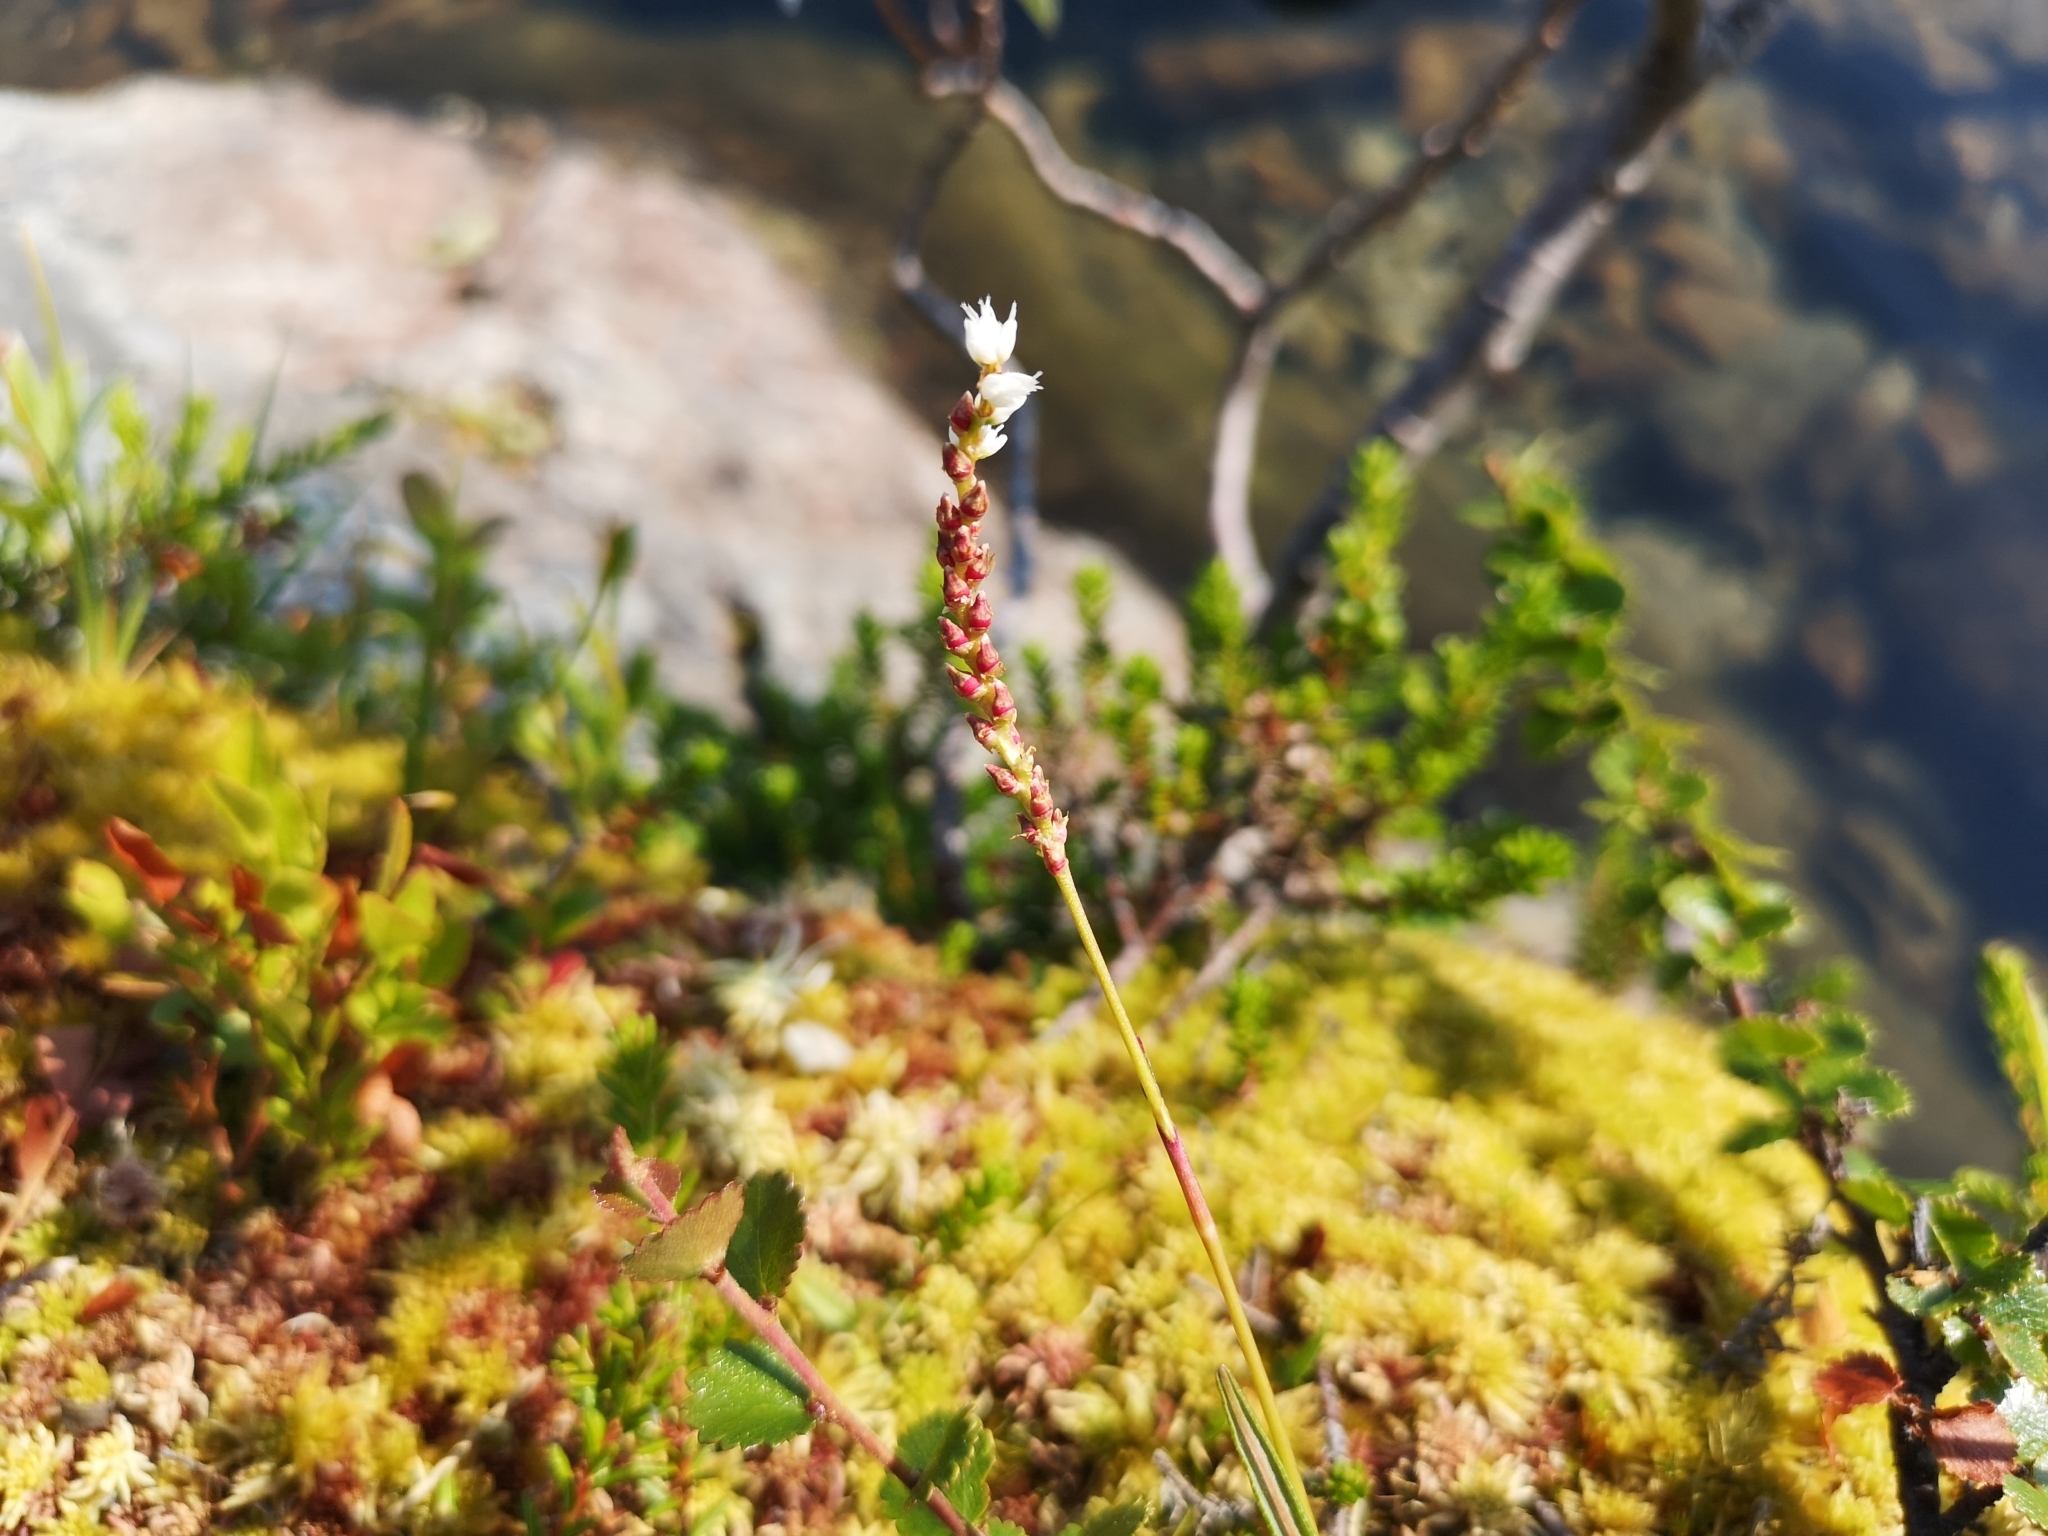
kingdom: Plantae
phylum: Tracheophyta
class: Magnoliopsida
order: Caryophyllales
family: Polygonaceae
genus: Bistorta
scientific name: Bistorta vivipara
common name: Alpine bistort
